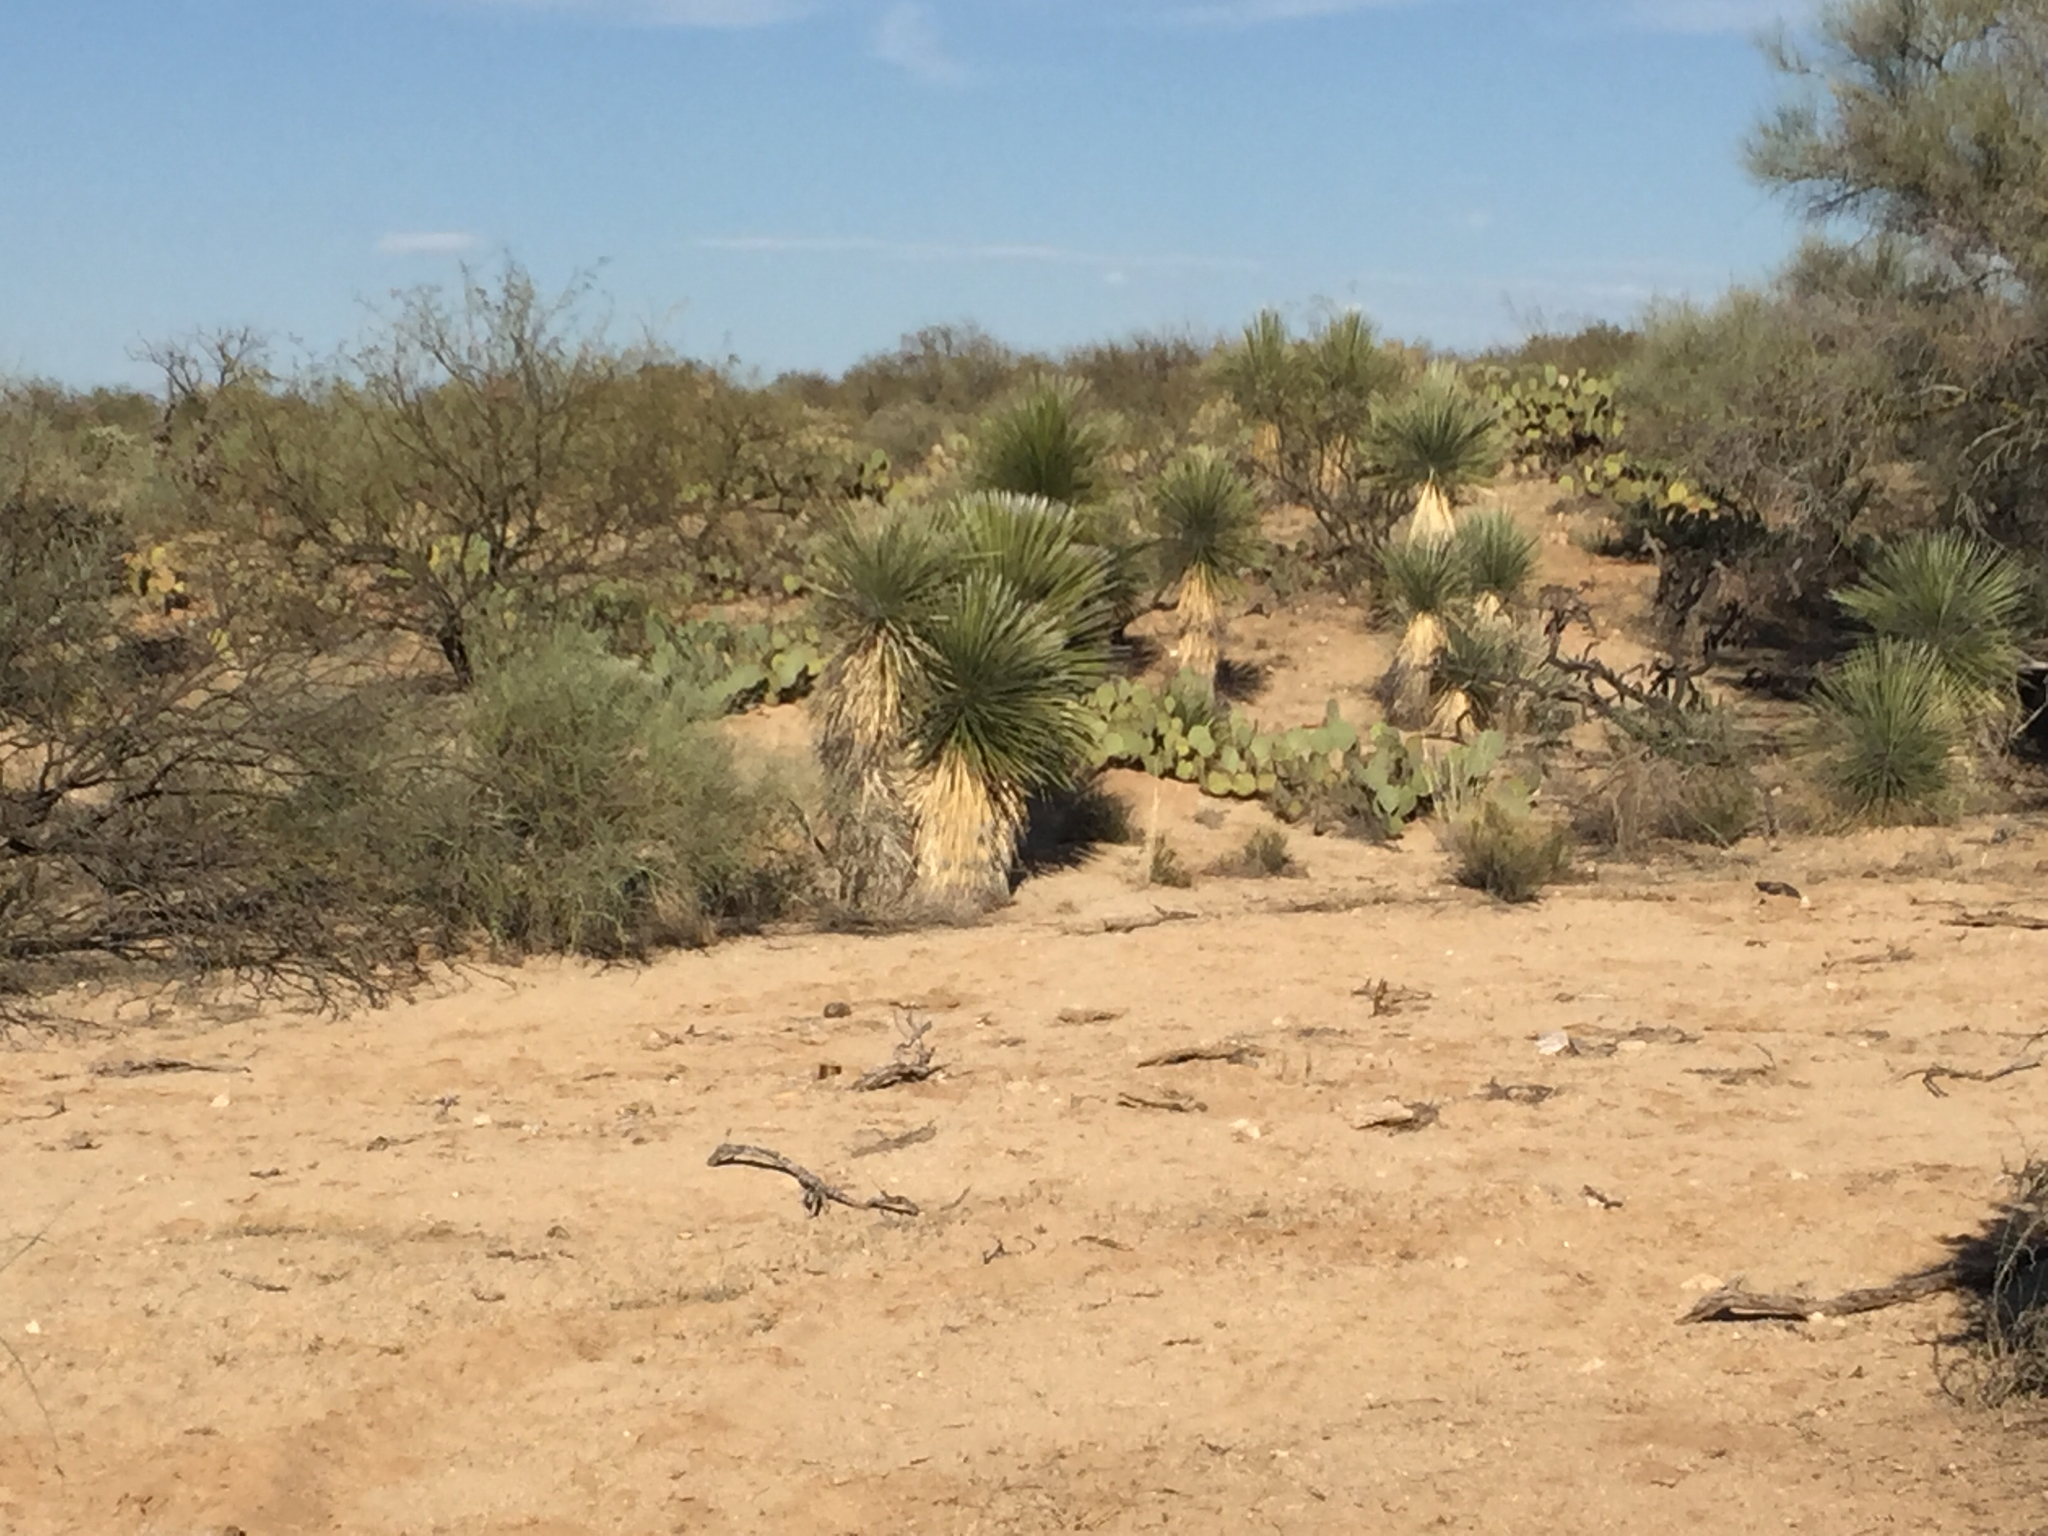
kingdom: Plantae
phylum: Tracheophyta
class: Liliopsida
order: Asparagales
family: Asparagaceae
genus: Yucca
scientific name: Yucca elata
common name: Palmella
